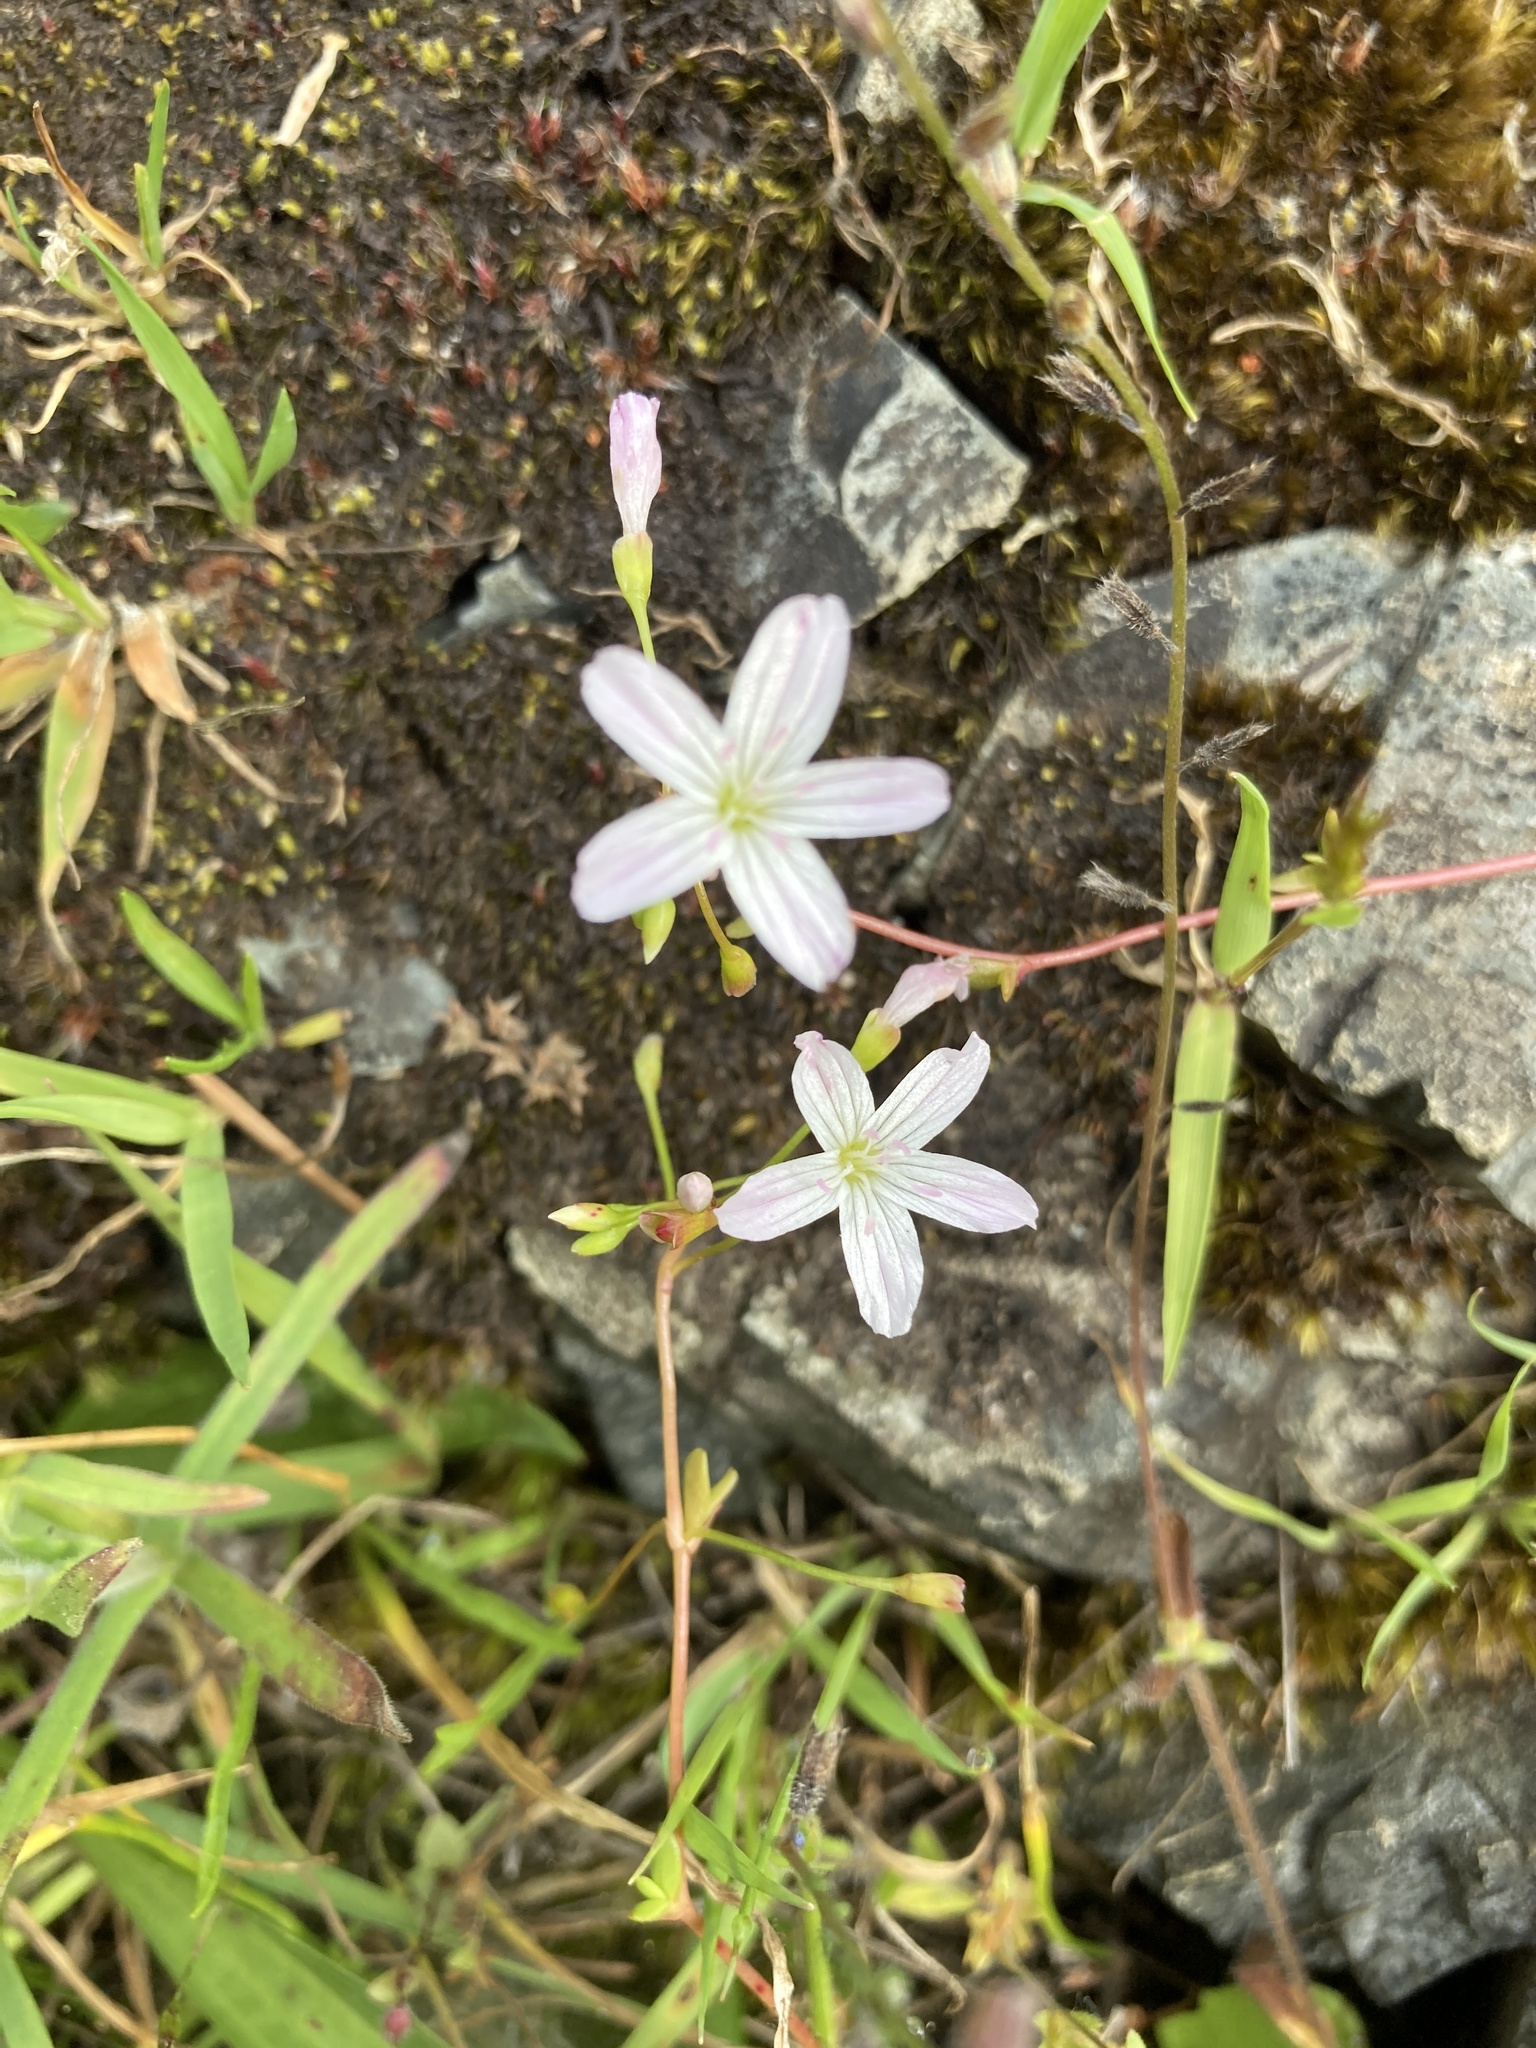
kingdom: Plantae
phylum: Tracheophyta
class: Magnoliopsida
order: Caryophyllales
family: Montiaceae
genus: Montia
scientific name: Montia parvifolia
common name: Small-leaved blinks
